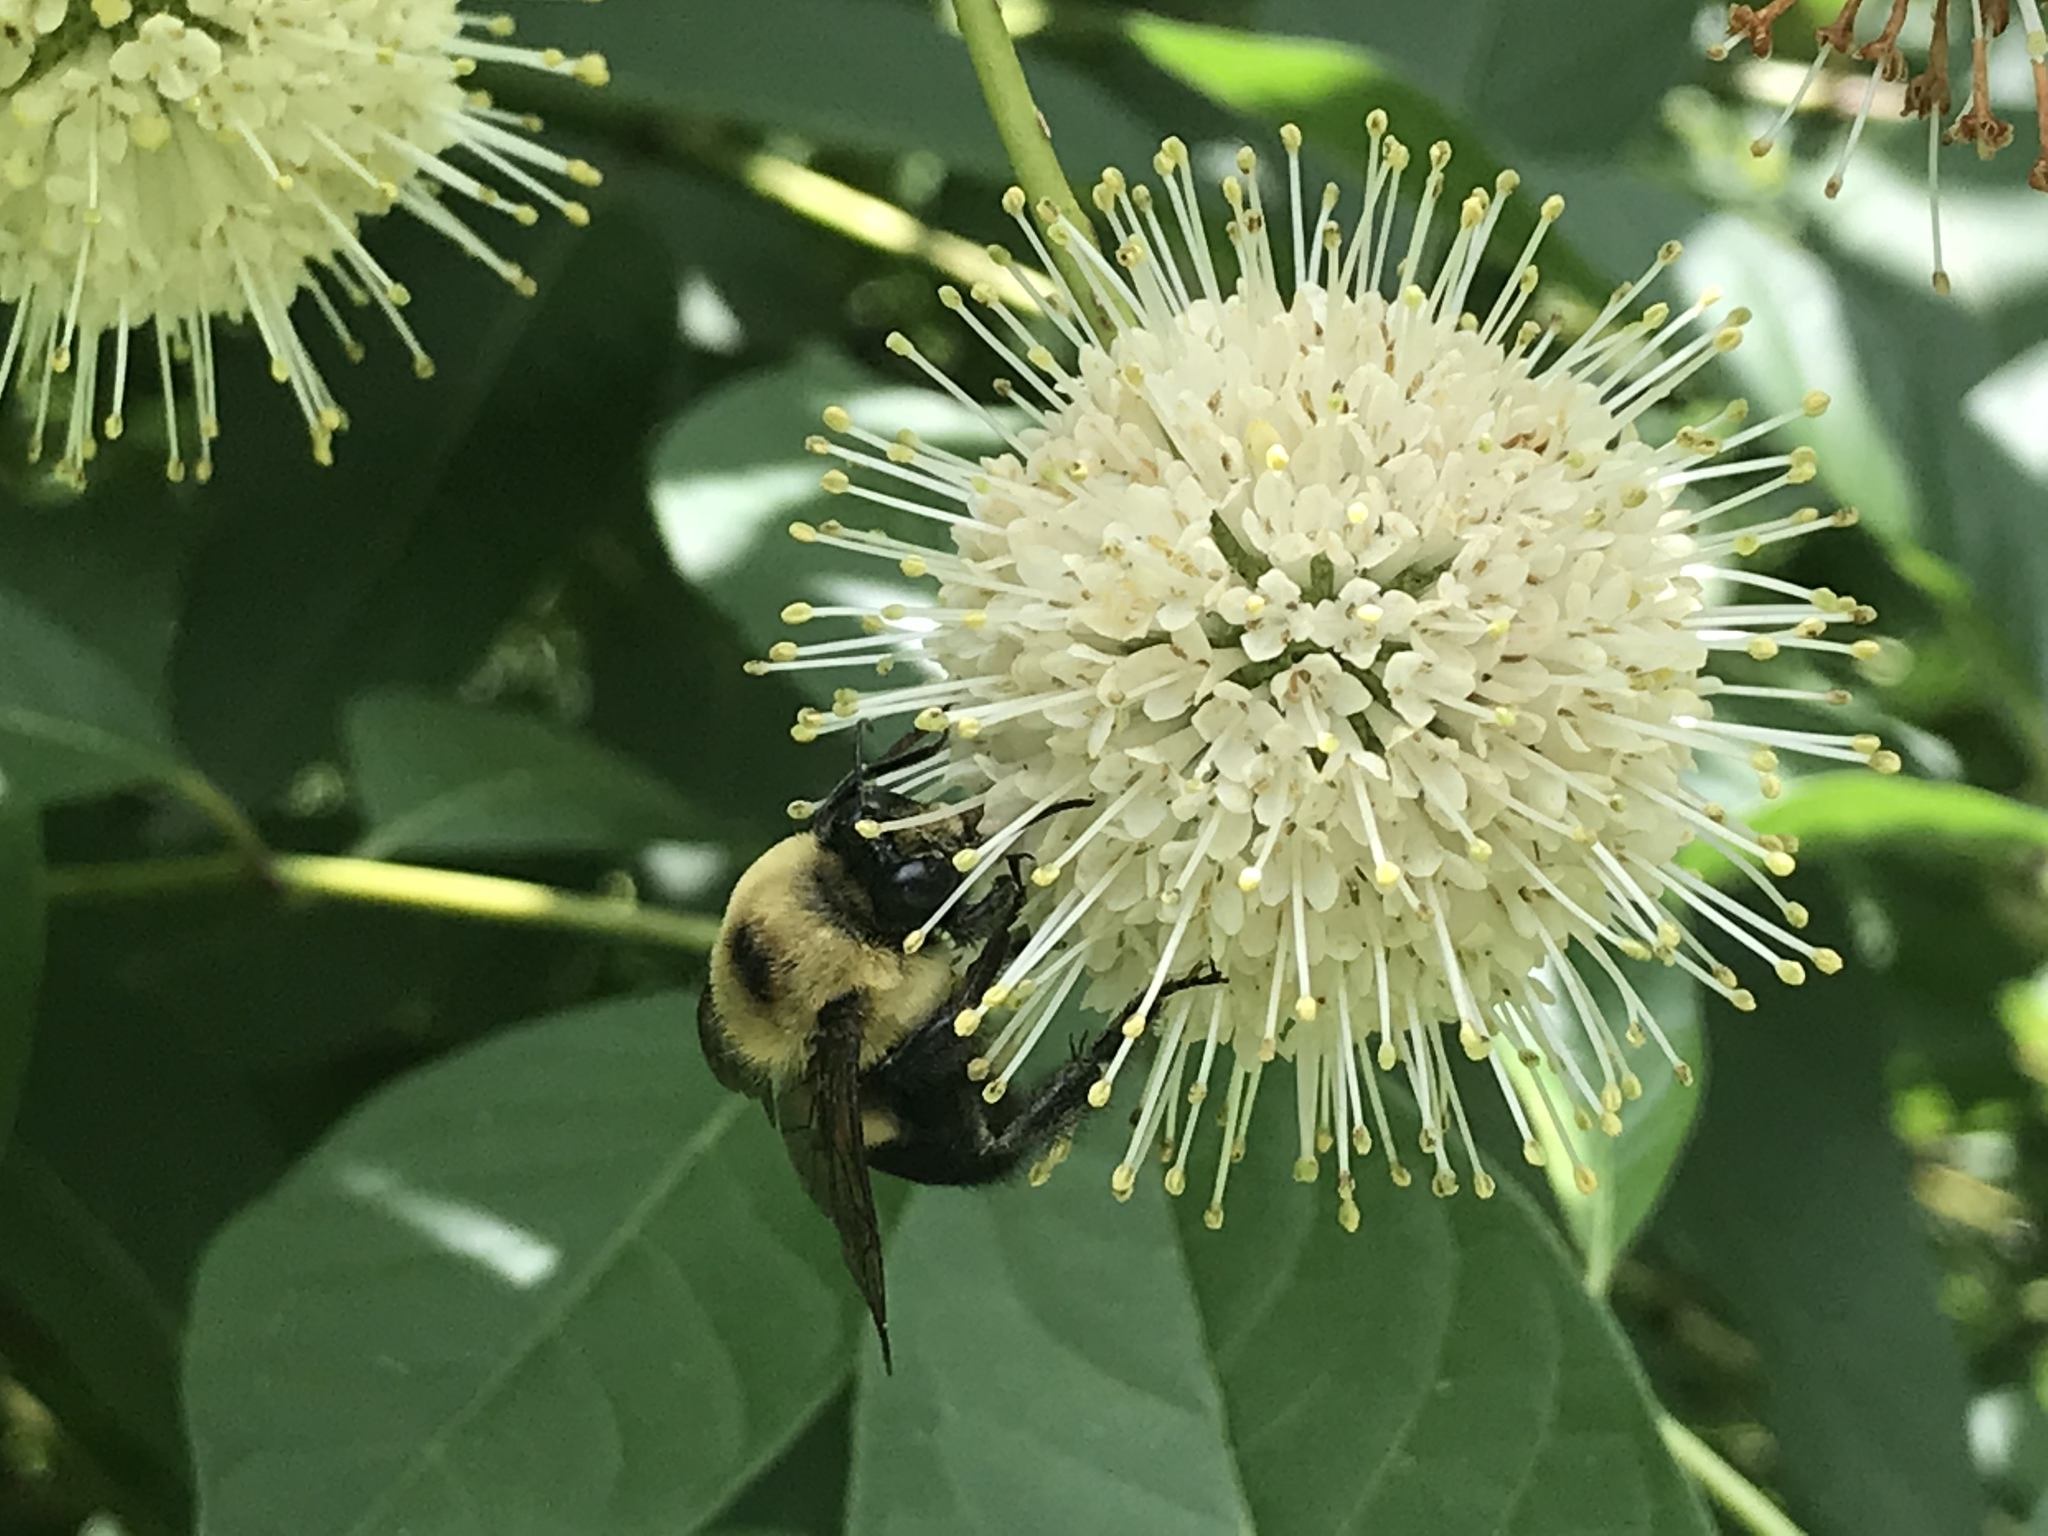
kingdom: Animalia
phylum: Arthropoda
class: Insecta
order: Hymenoptera
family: Apidae
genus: Bombus
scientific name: Bombus griseocollis
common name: Brown-belted bumble bee
